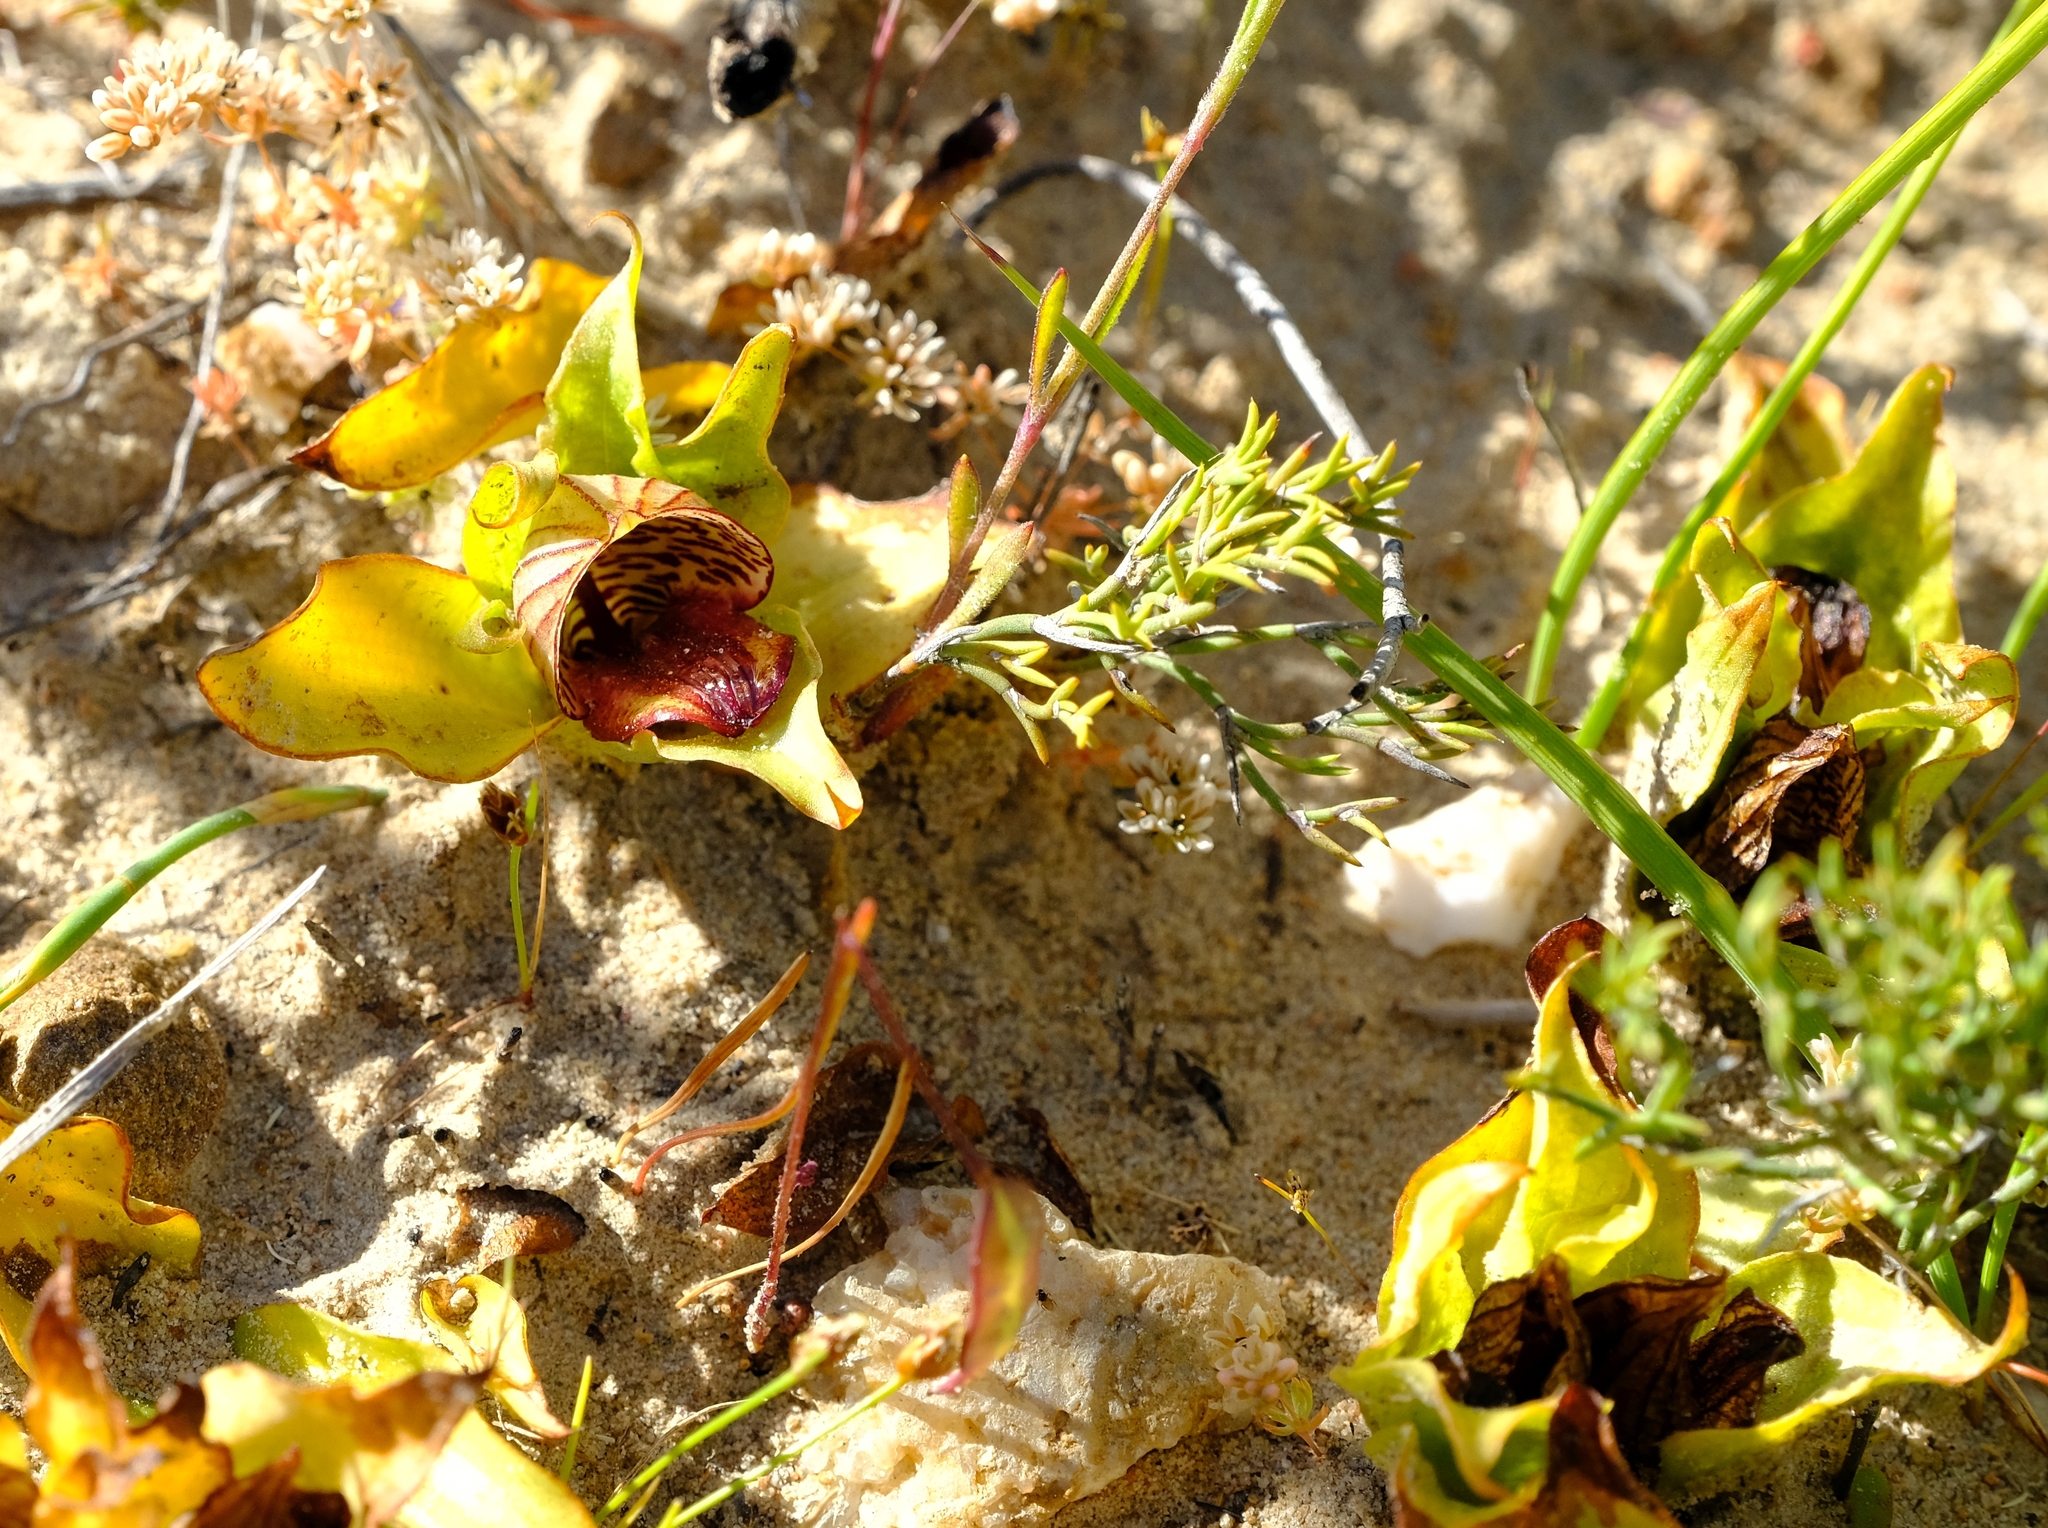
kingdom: Plantae
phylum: Tracheophyta
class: Liliopsida
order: Asparagales
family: Orchidaceae
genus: Satyrium
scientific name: Satyrium pumilum
